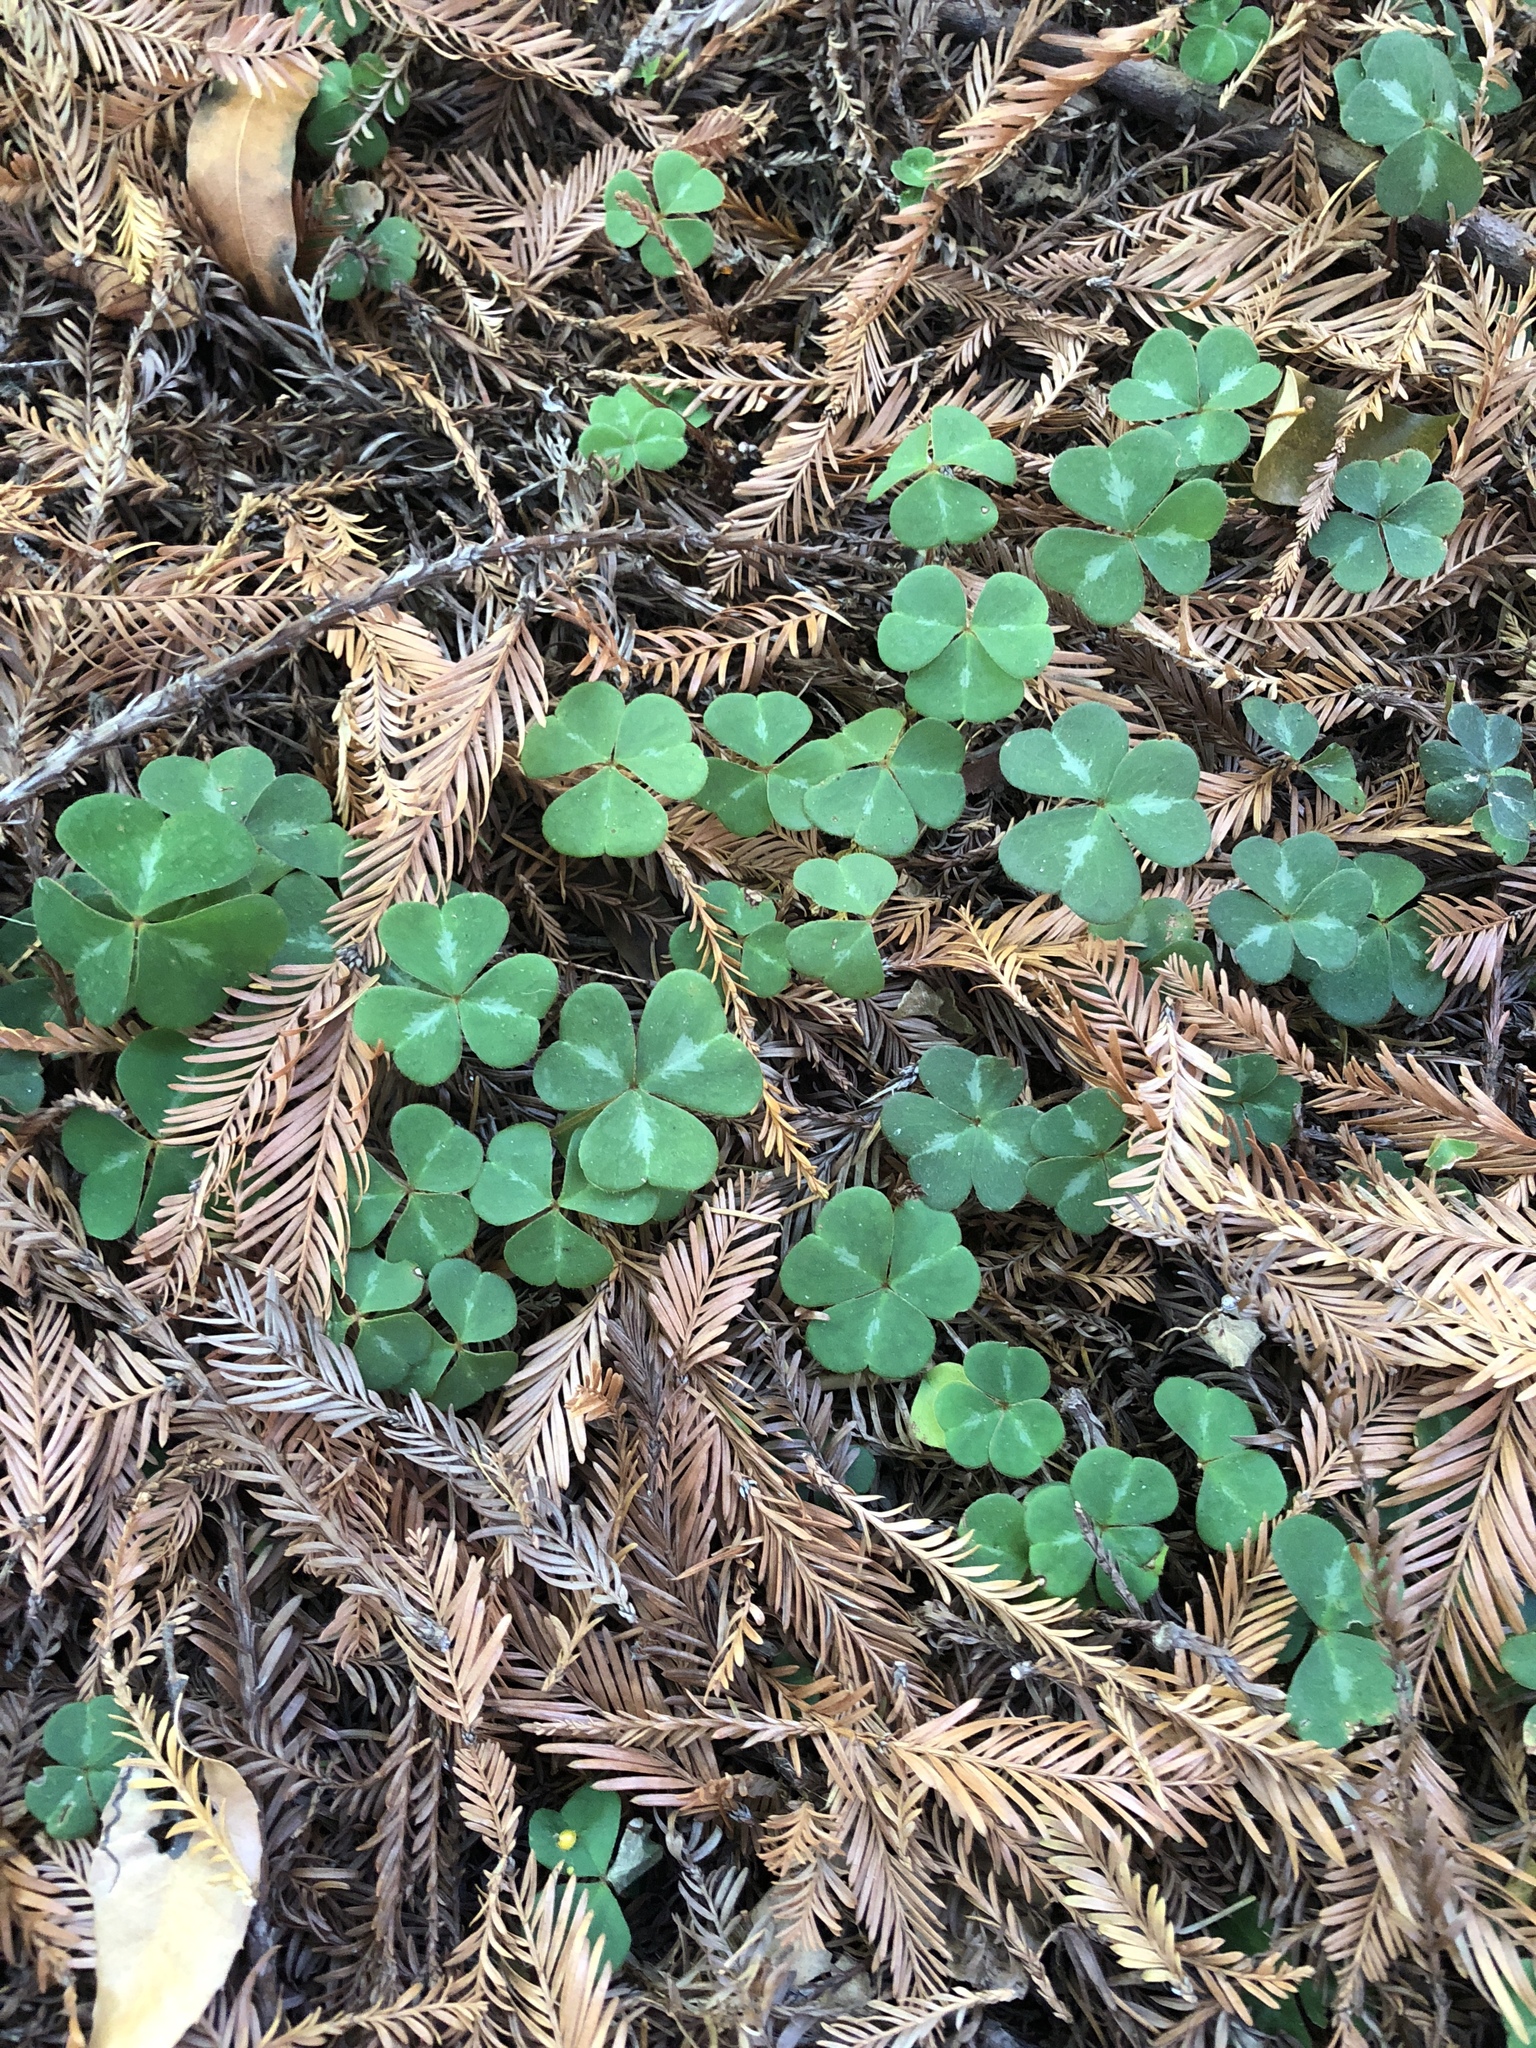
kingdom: Plantae
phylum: Tracheophyta
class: Magnoliopsida
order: Oxalidales
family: Oxalidaceae
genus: Oxalis
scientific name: Oxalis oregana
